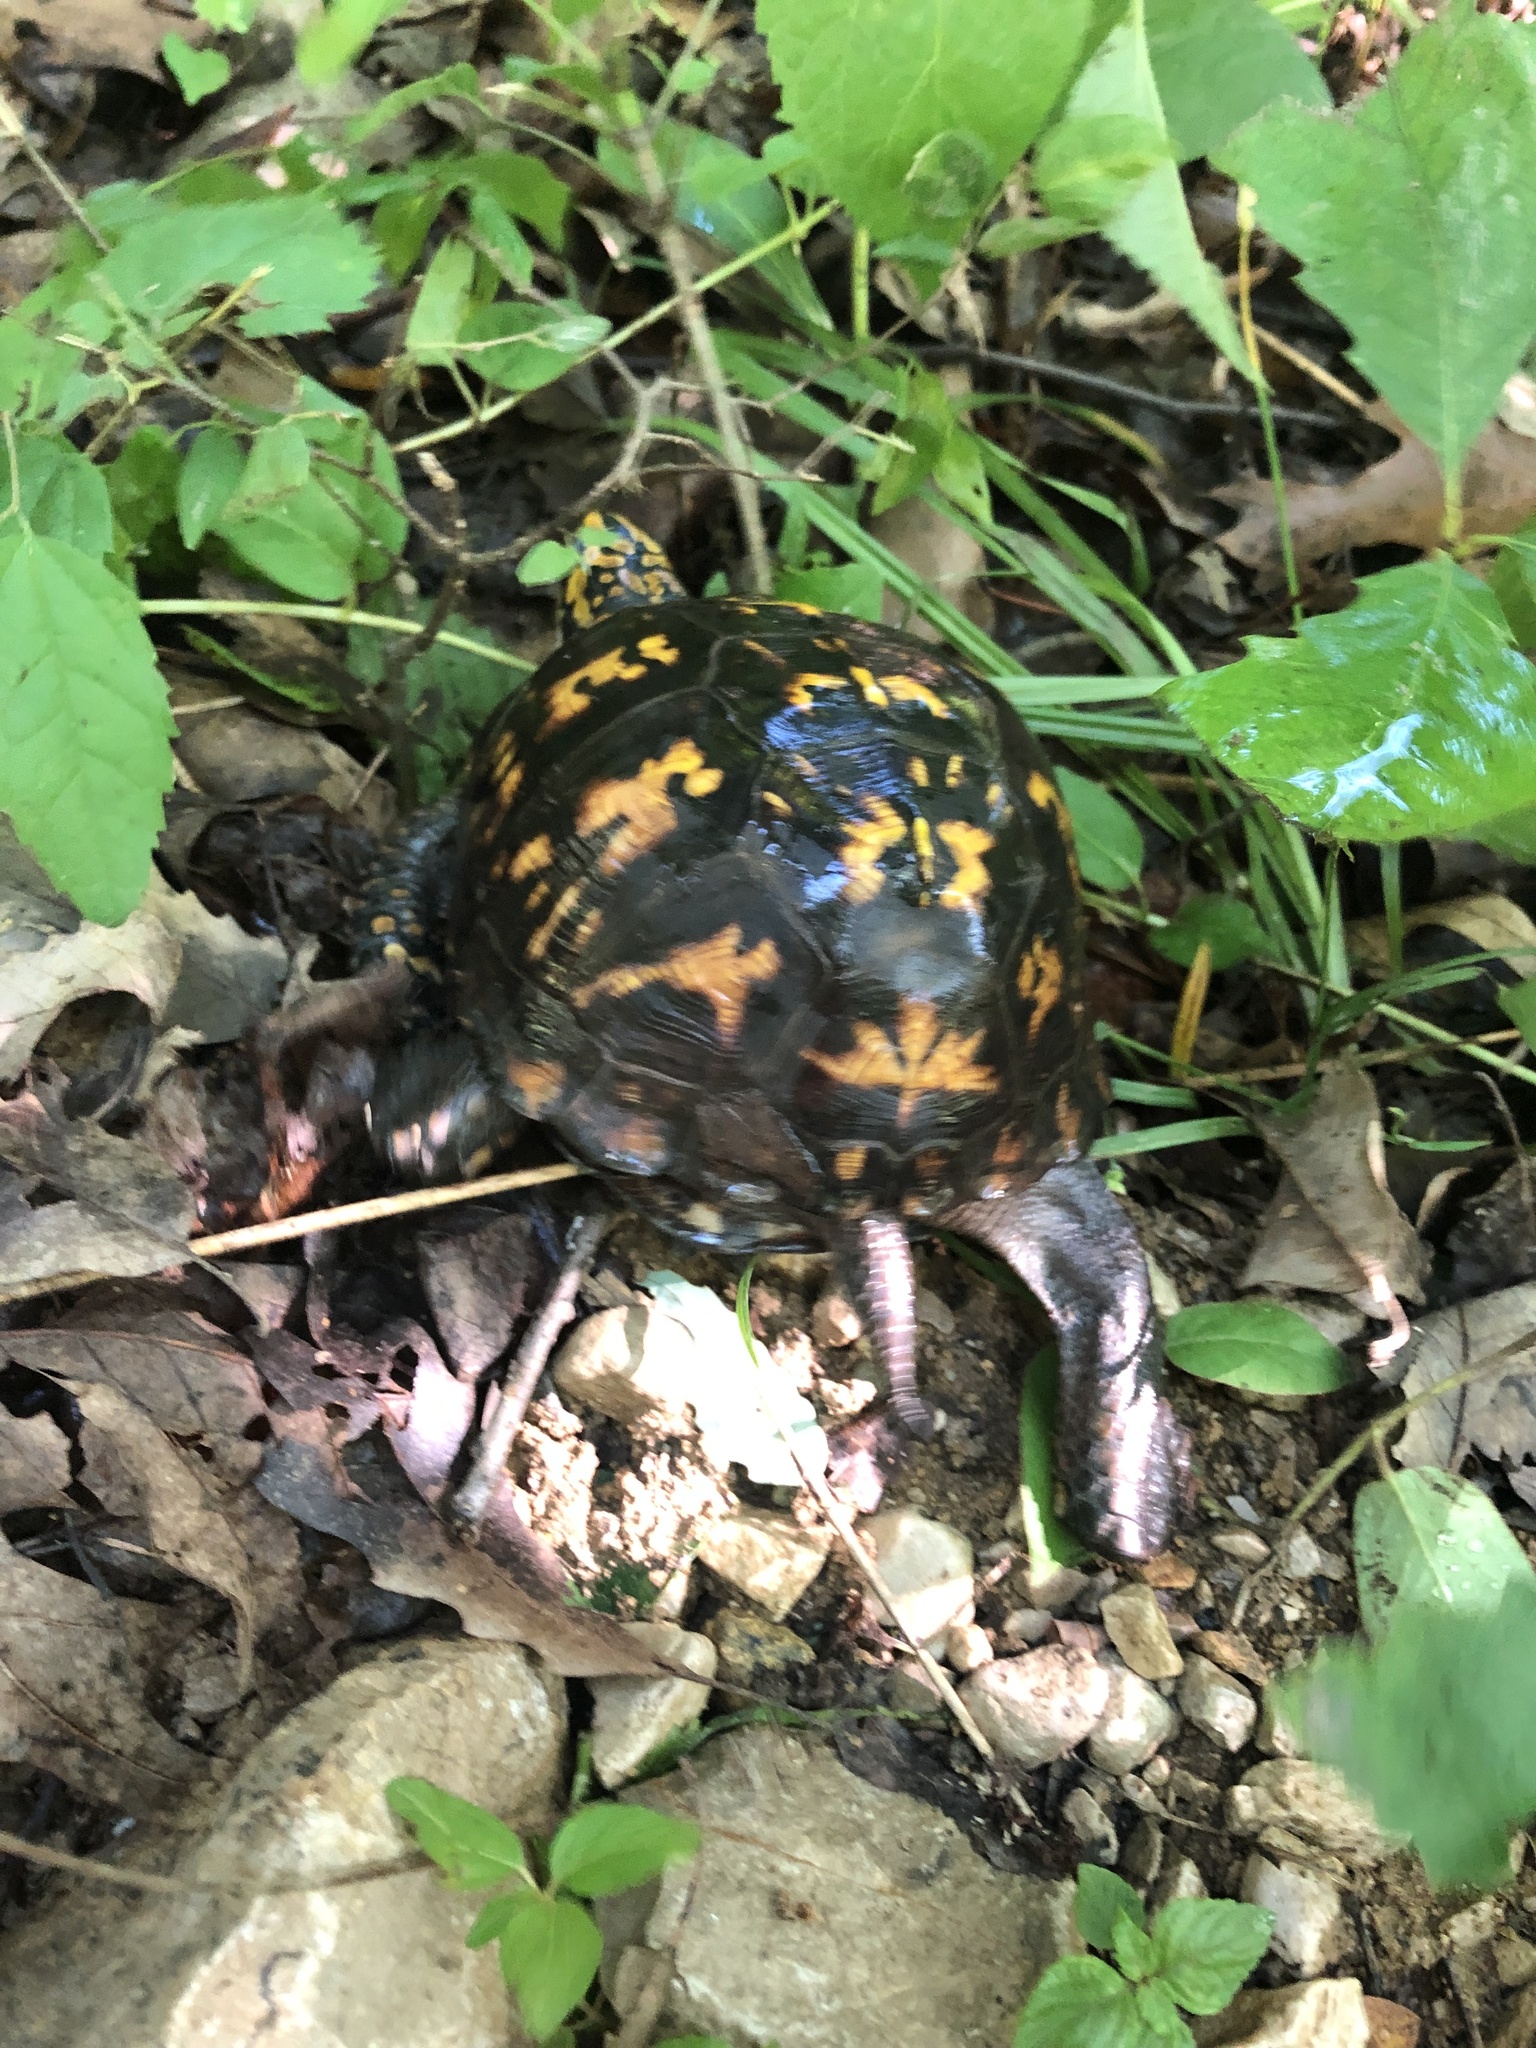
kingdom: Animalia
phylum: Chordata
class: Testudines
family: Emydidae
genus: Terrapene
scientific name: Terrapene carolina
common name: Common box turtle
